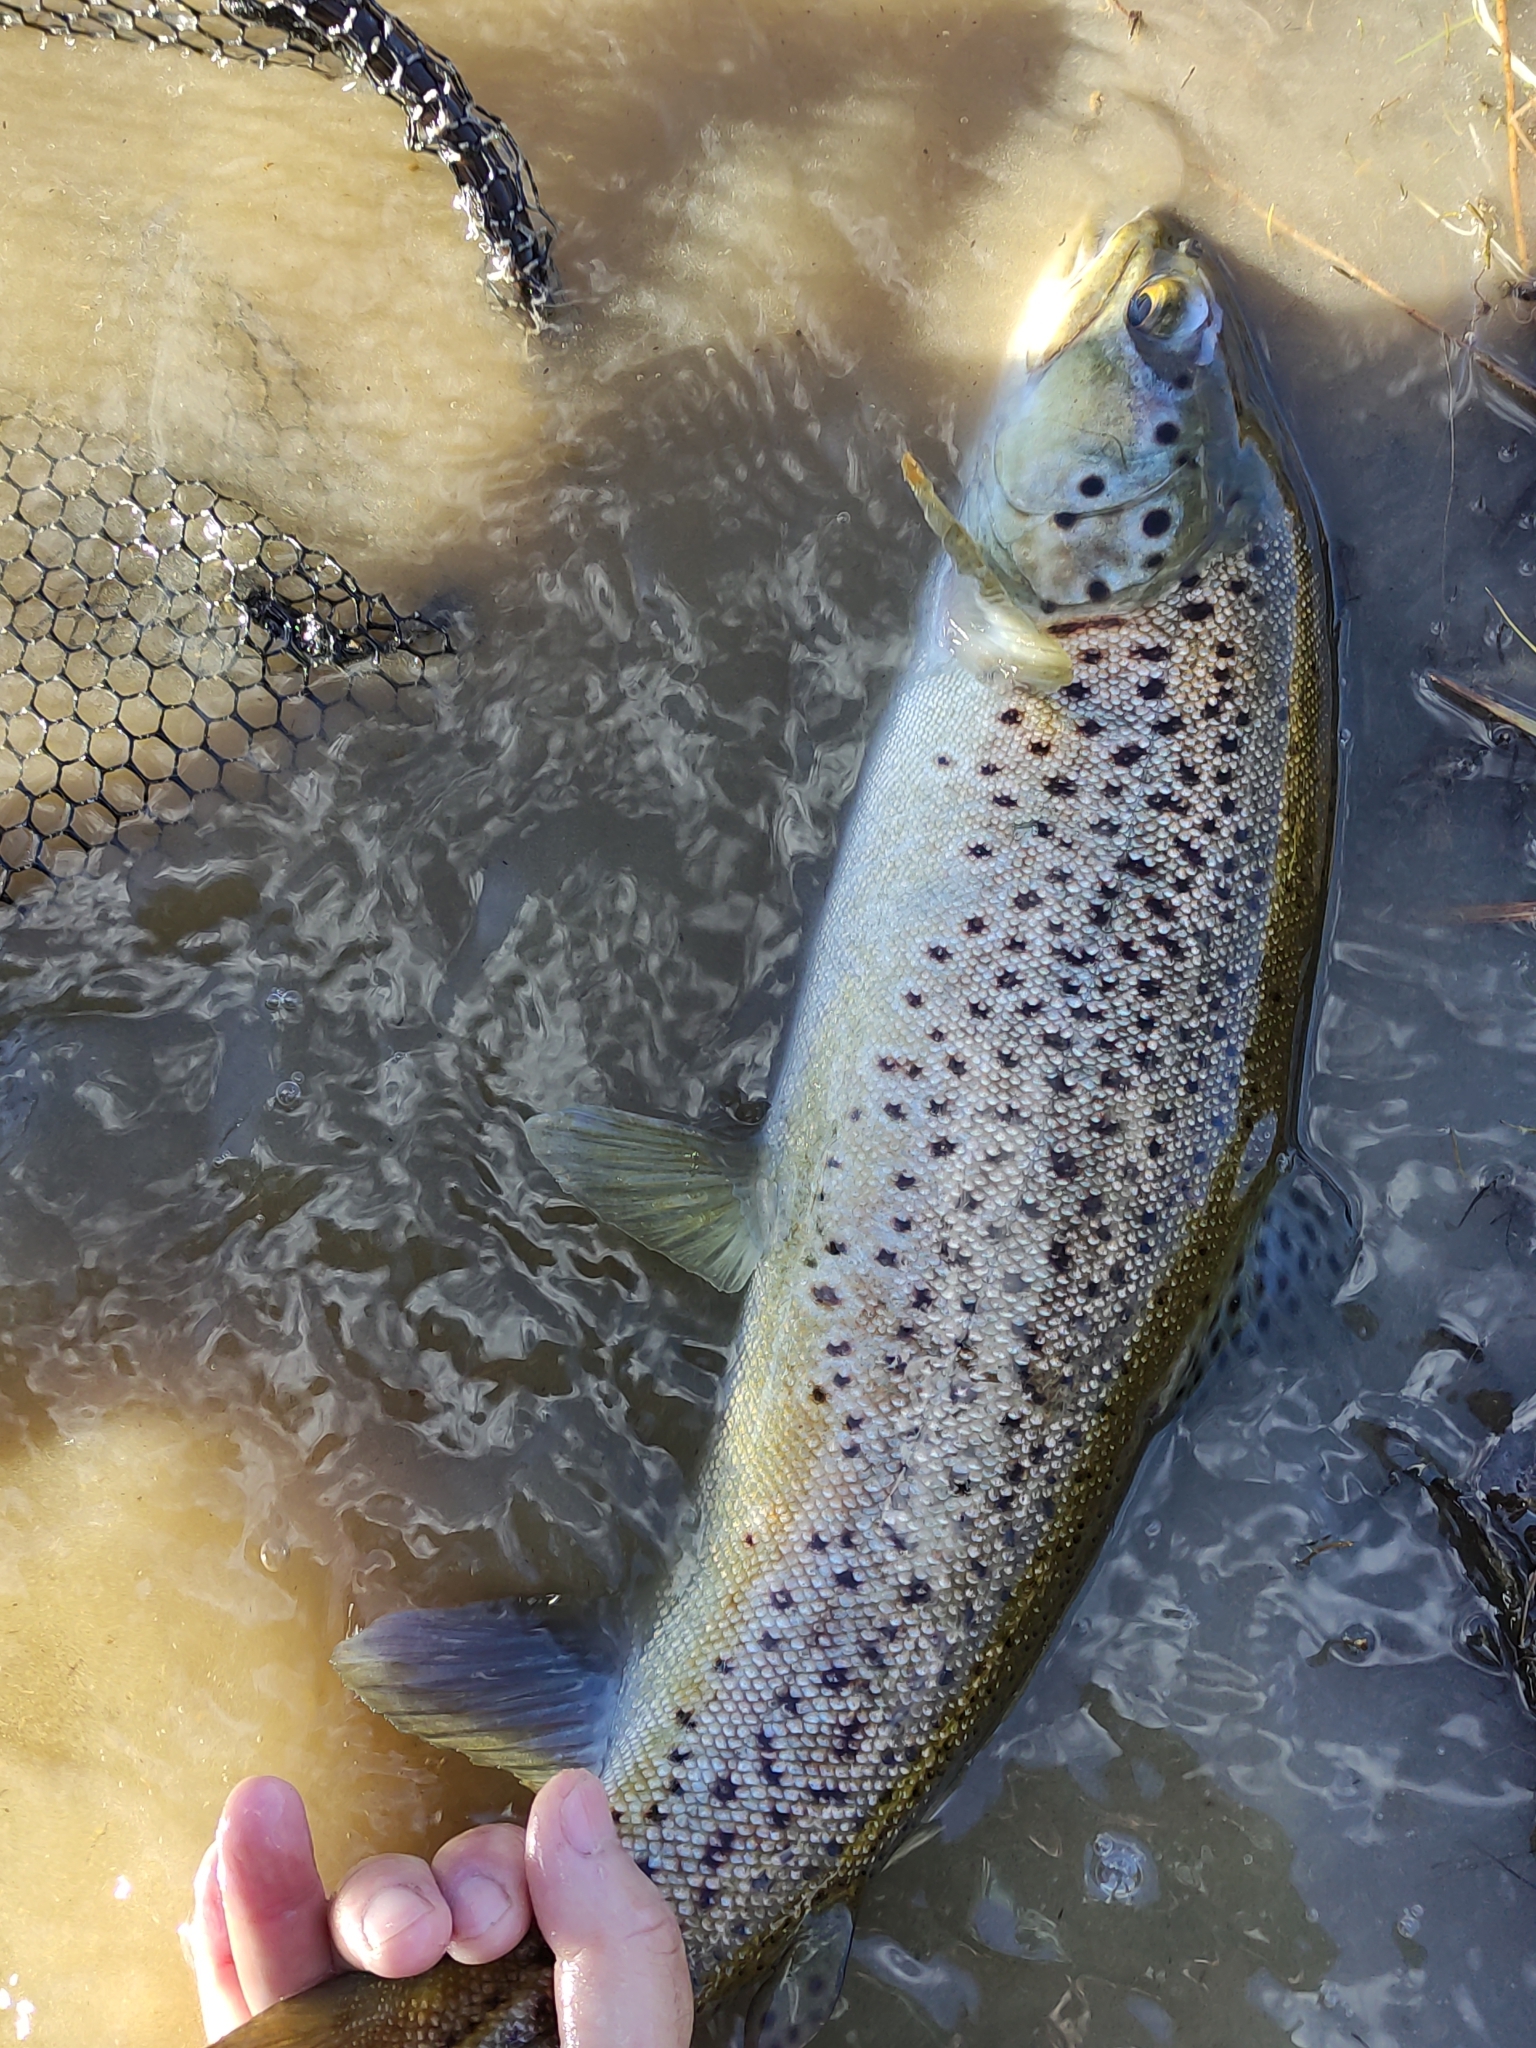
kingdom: Animalia
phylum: Chordata
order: Salmoniformes
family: Salmonidae
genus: Salmo
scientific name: Salmo trutta
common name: Brown trout
